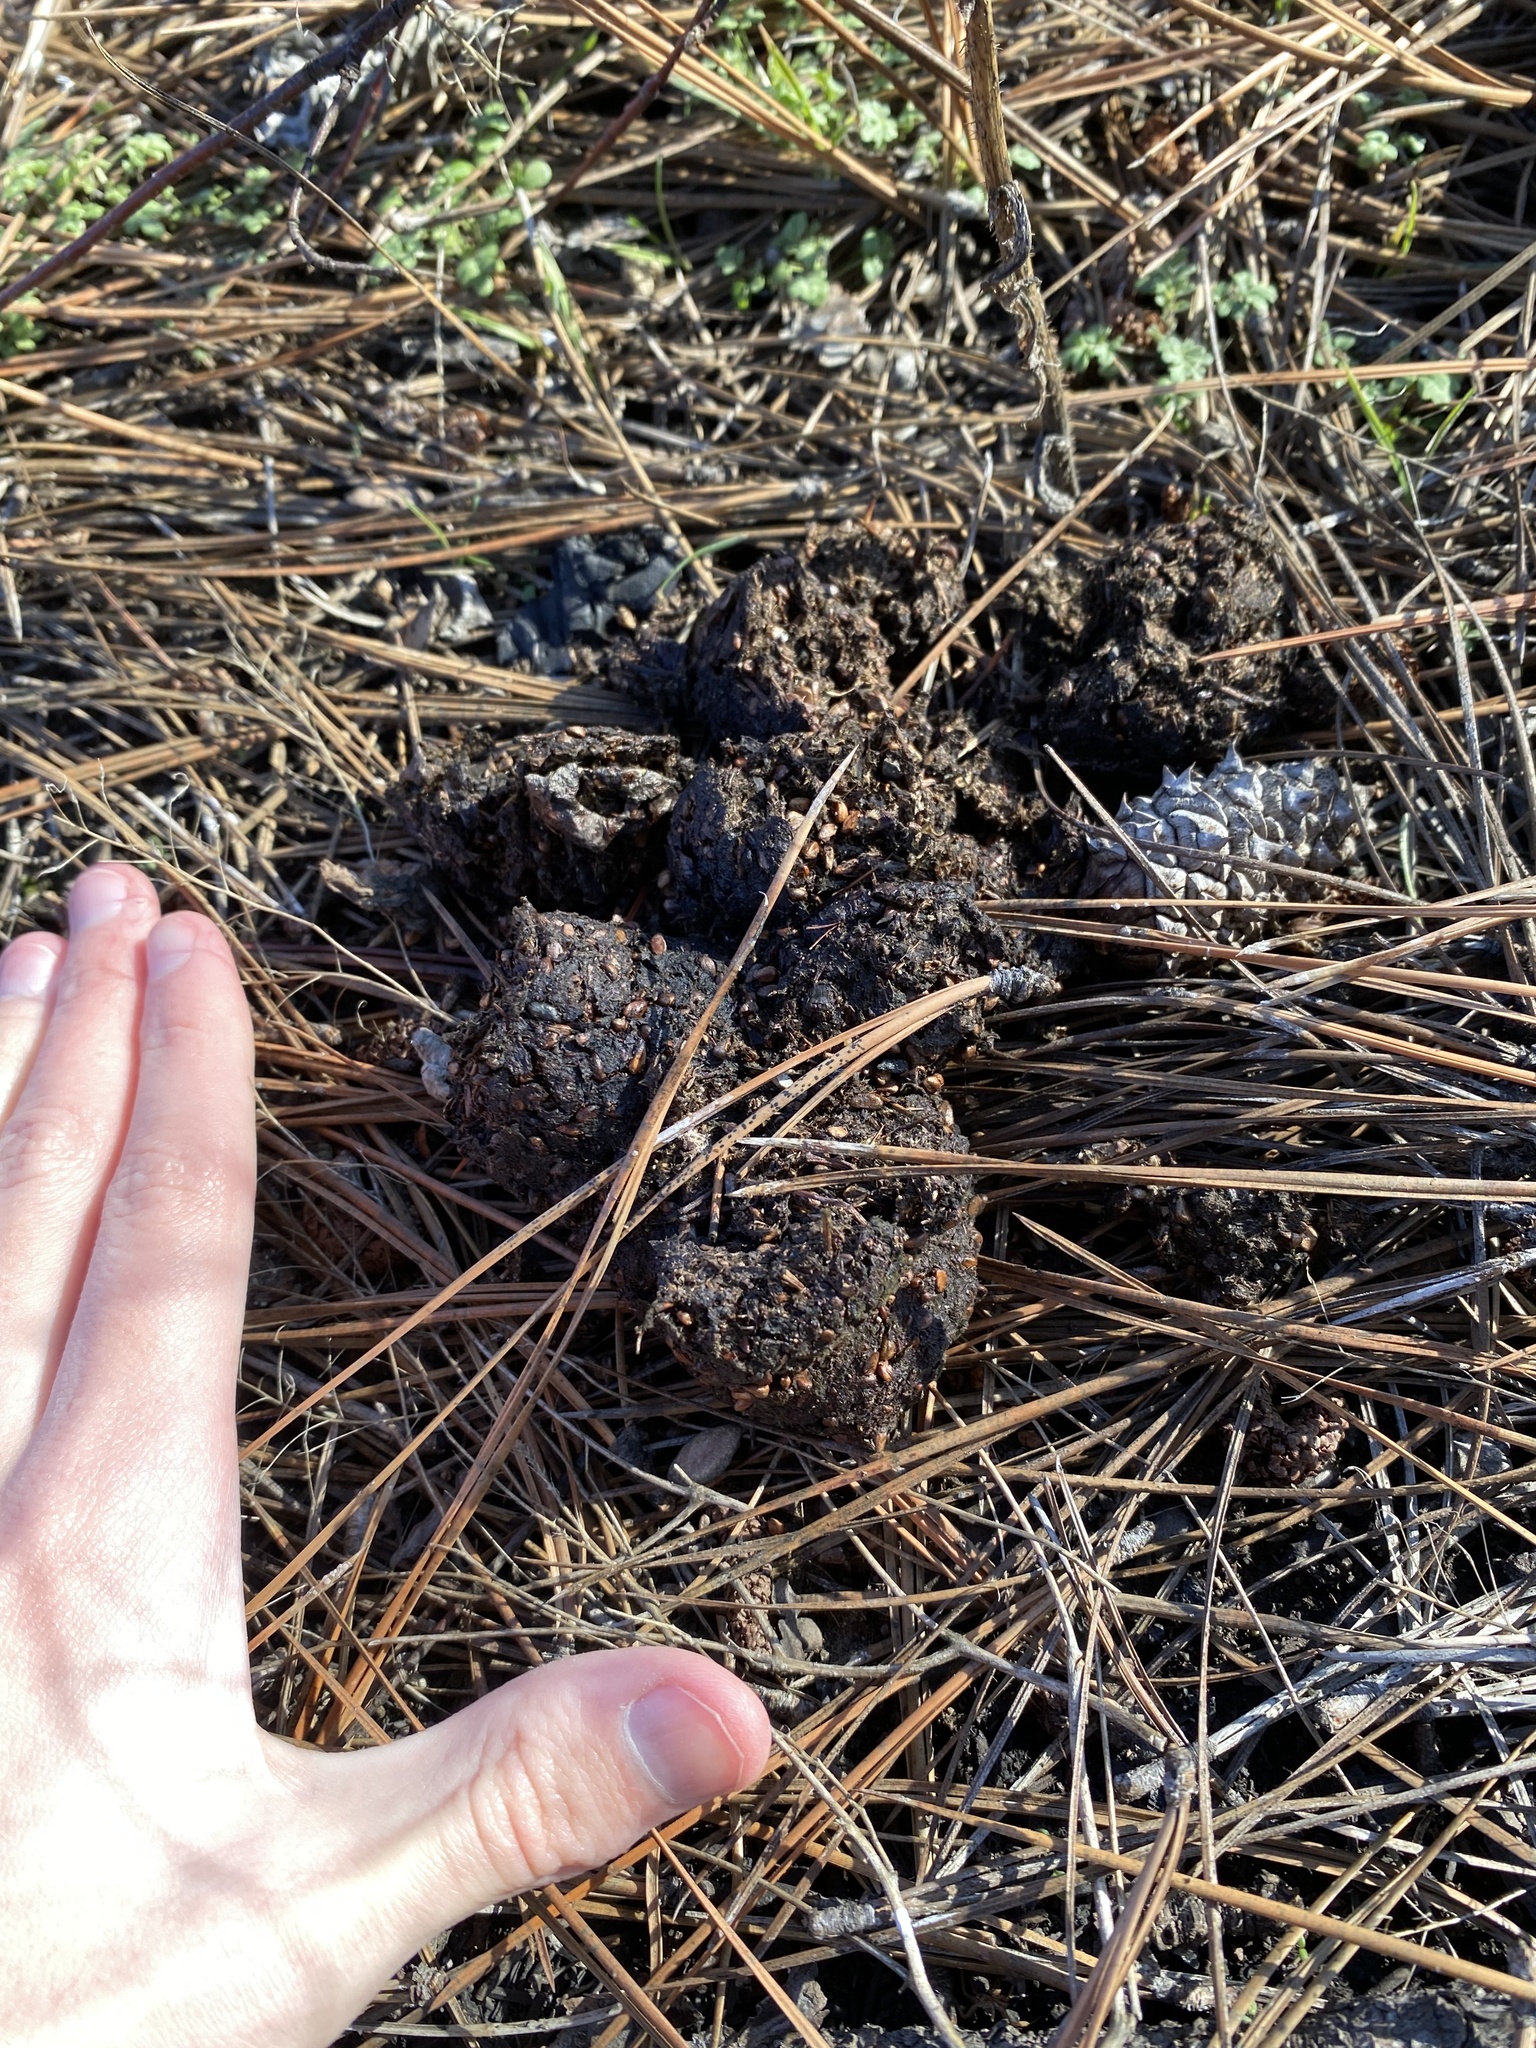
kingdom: Animalia
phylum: Chordata
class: Mammalia
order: Carnivora
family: Ursidae
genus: Ursus
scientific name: Ursus americanus
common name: American black bear
